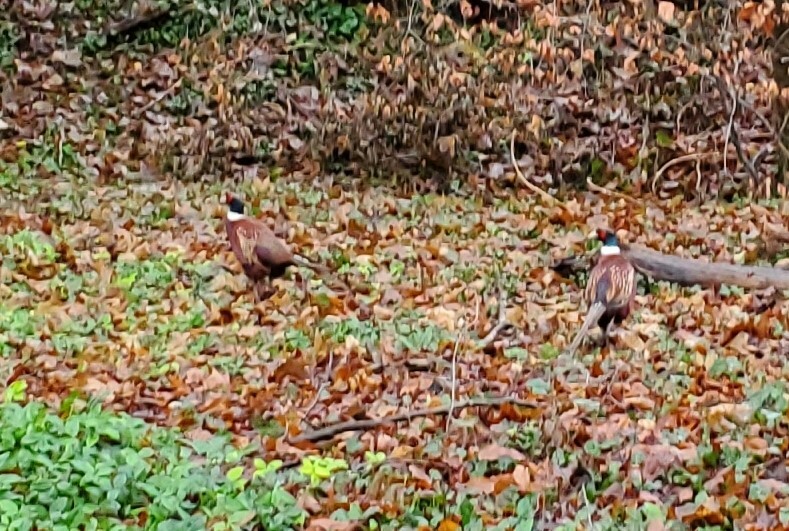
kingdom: Animalia
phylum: Chordata
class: Aves
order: Galliformes
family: Phasianidae
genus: Phasianus
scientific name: Phasianus colchicus
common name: Common pheasant
